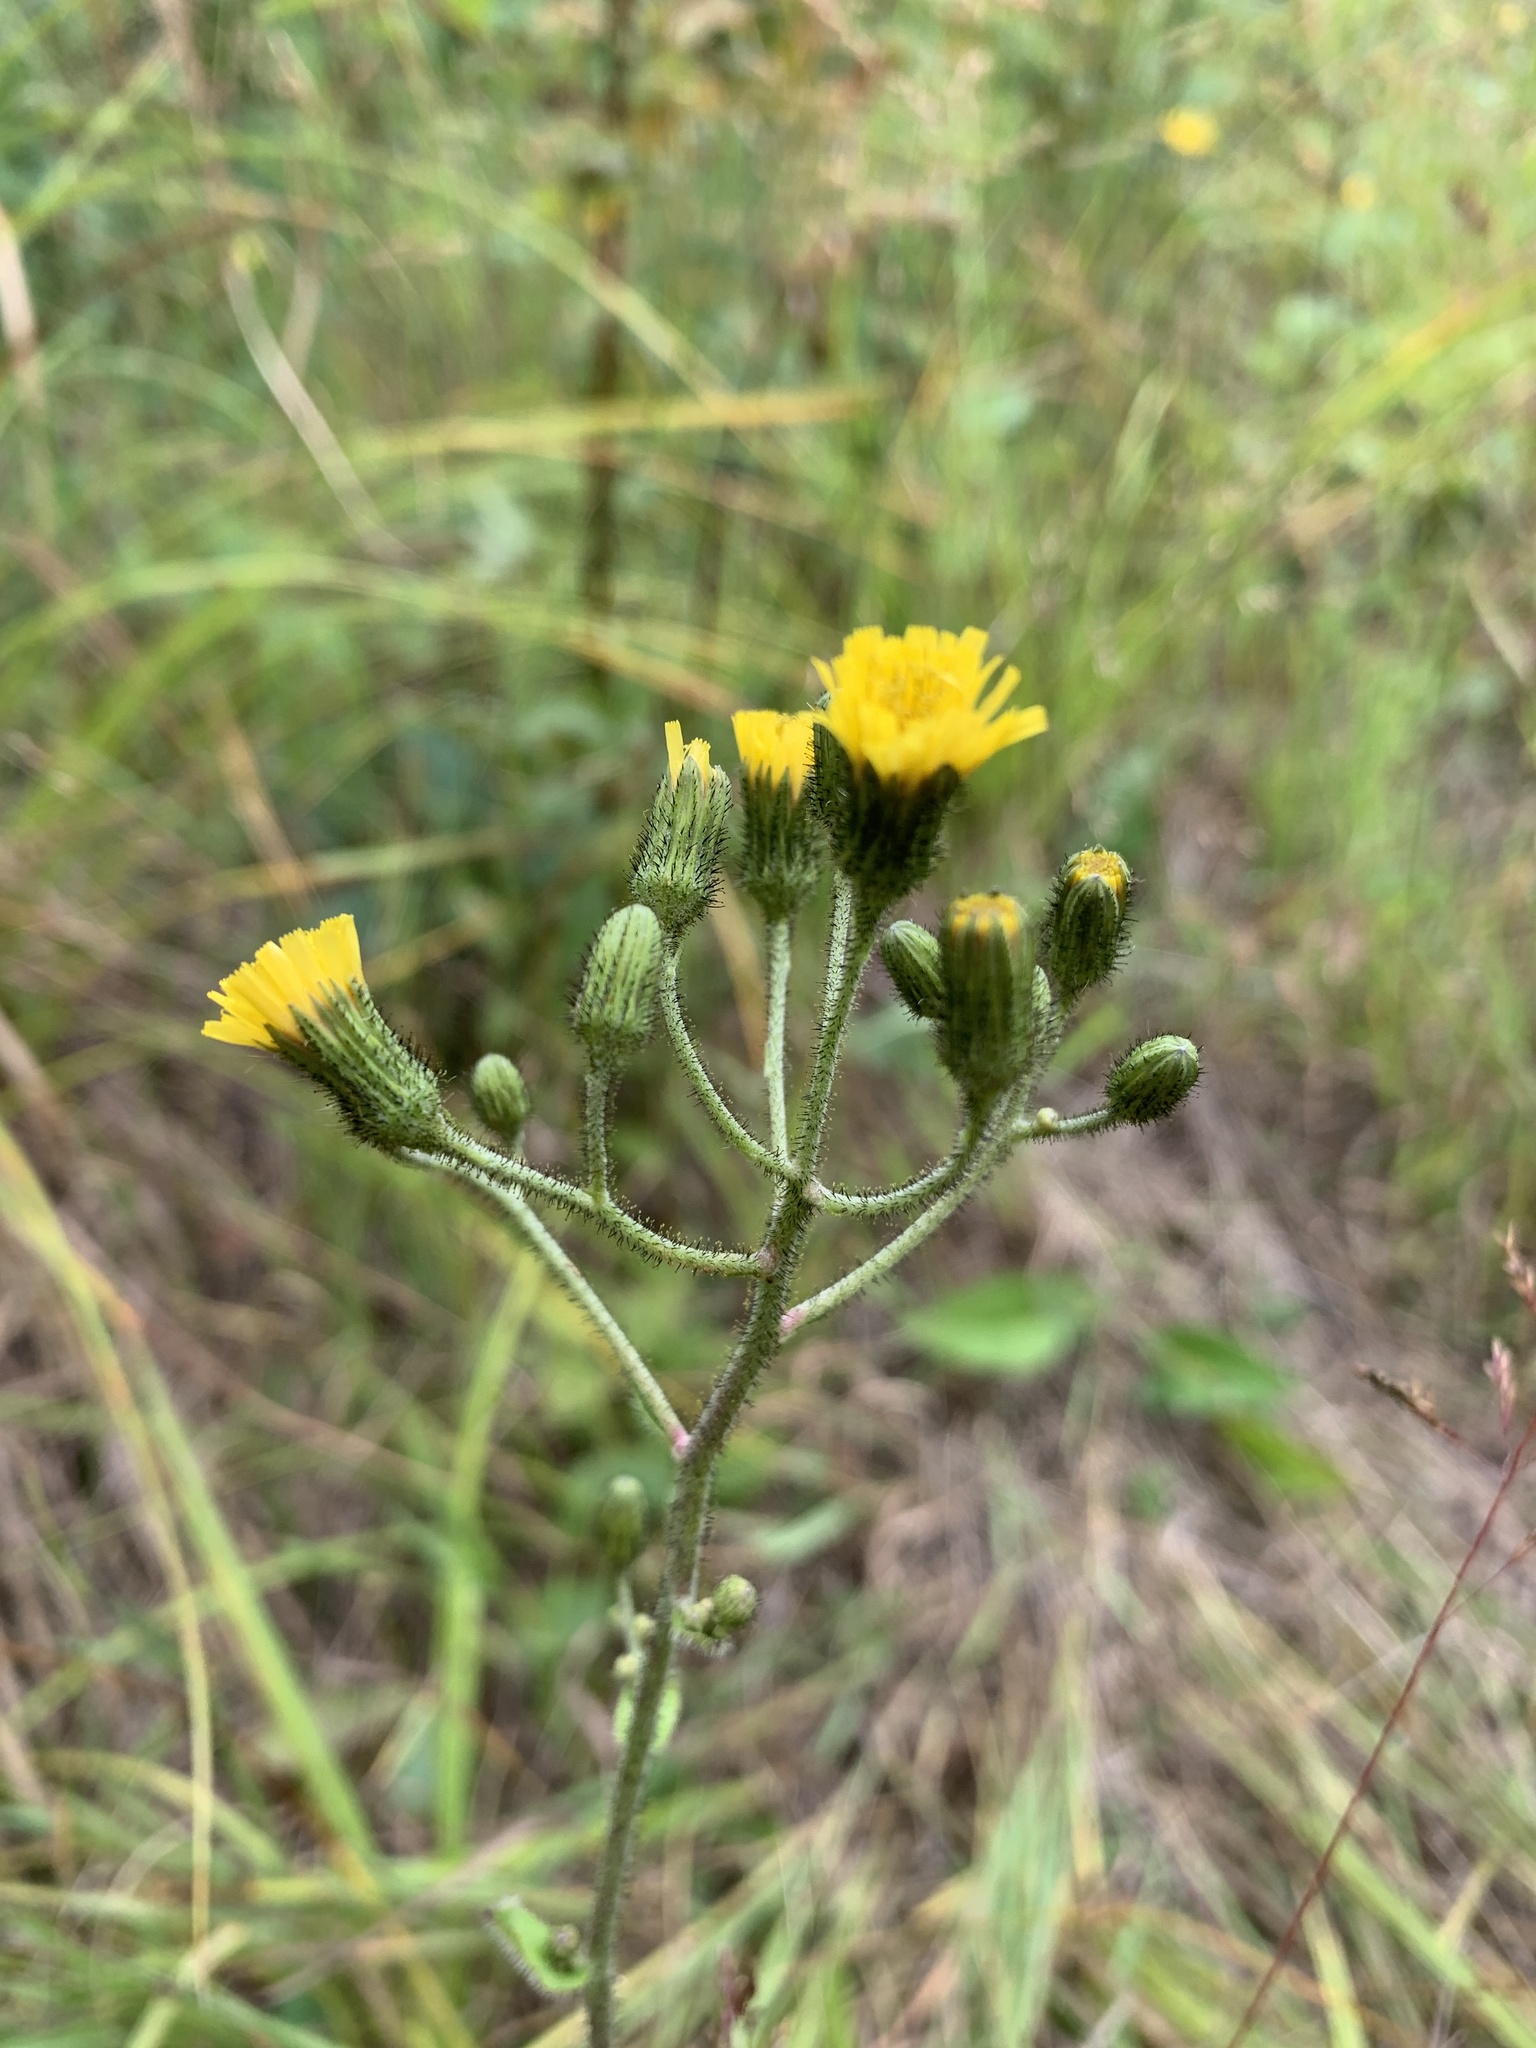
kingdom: Plantae
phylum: Tracheophyta
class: Magnoliopsida
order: Asterales
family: Asteraceae
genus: Hieracium
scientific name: Hieracium scabrum
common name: Rough hawkweed
